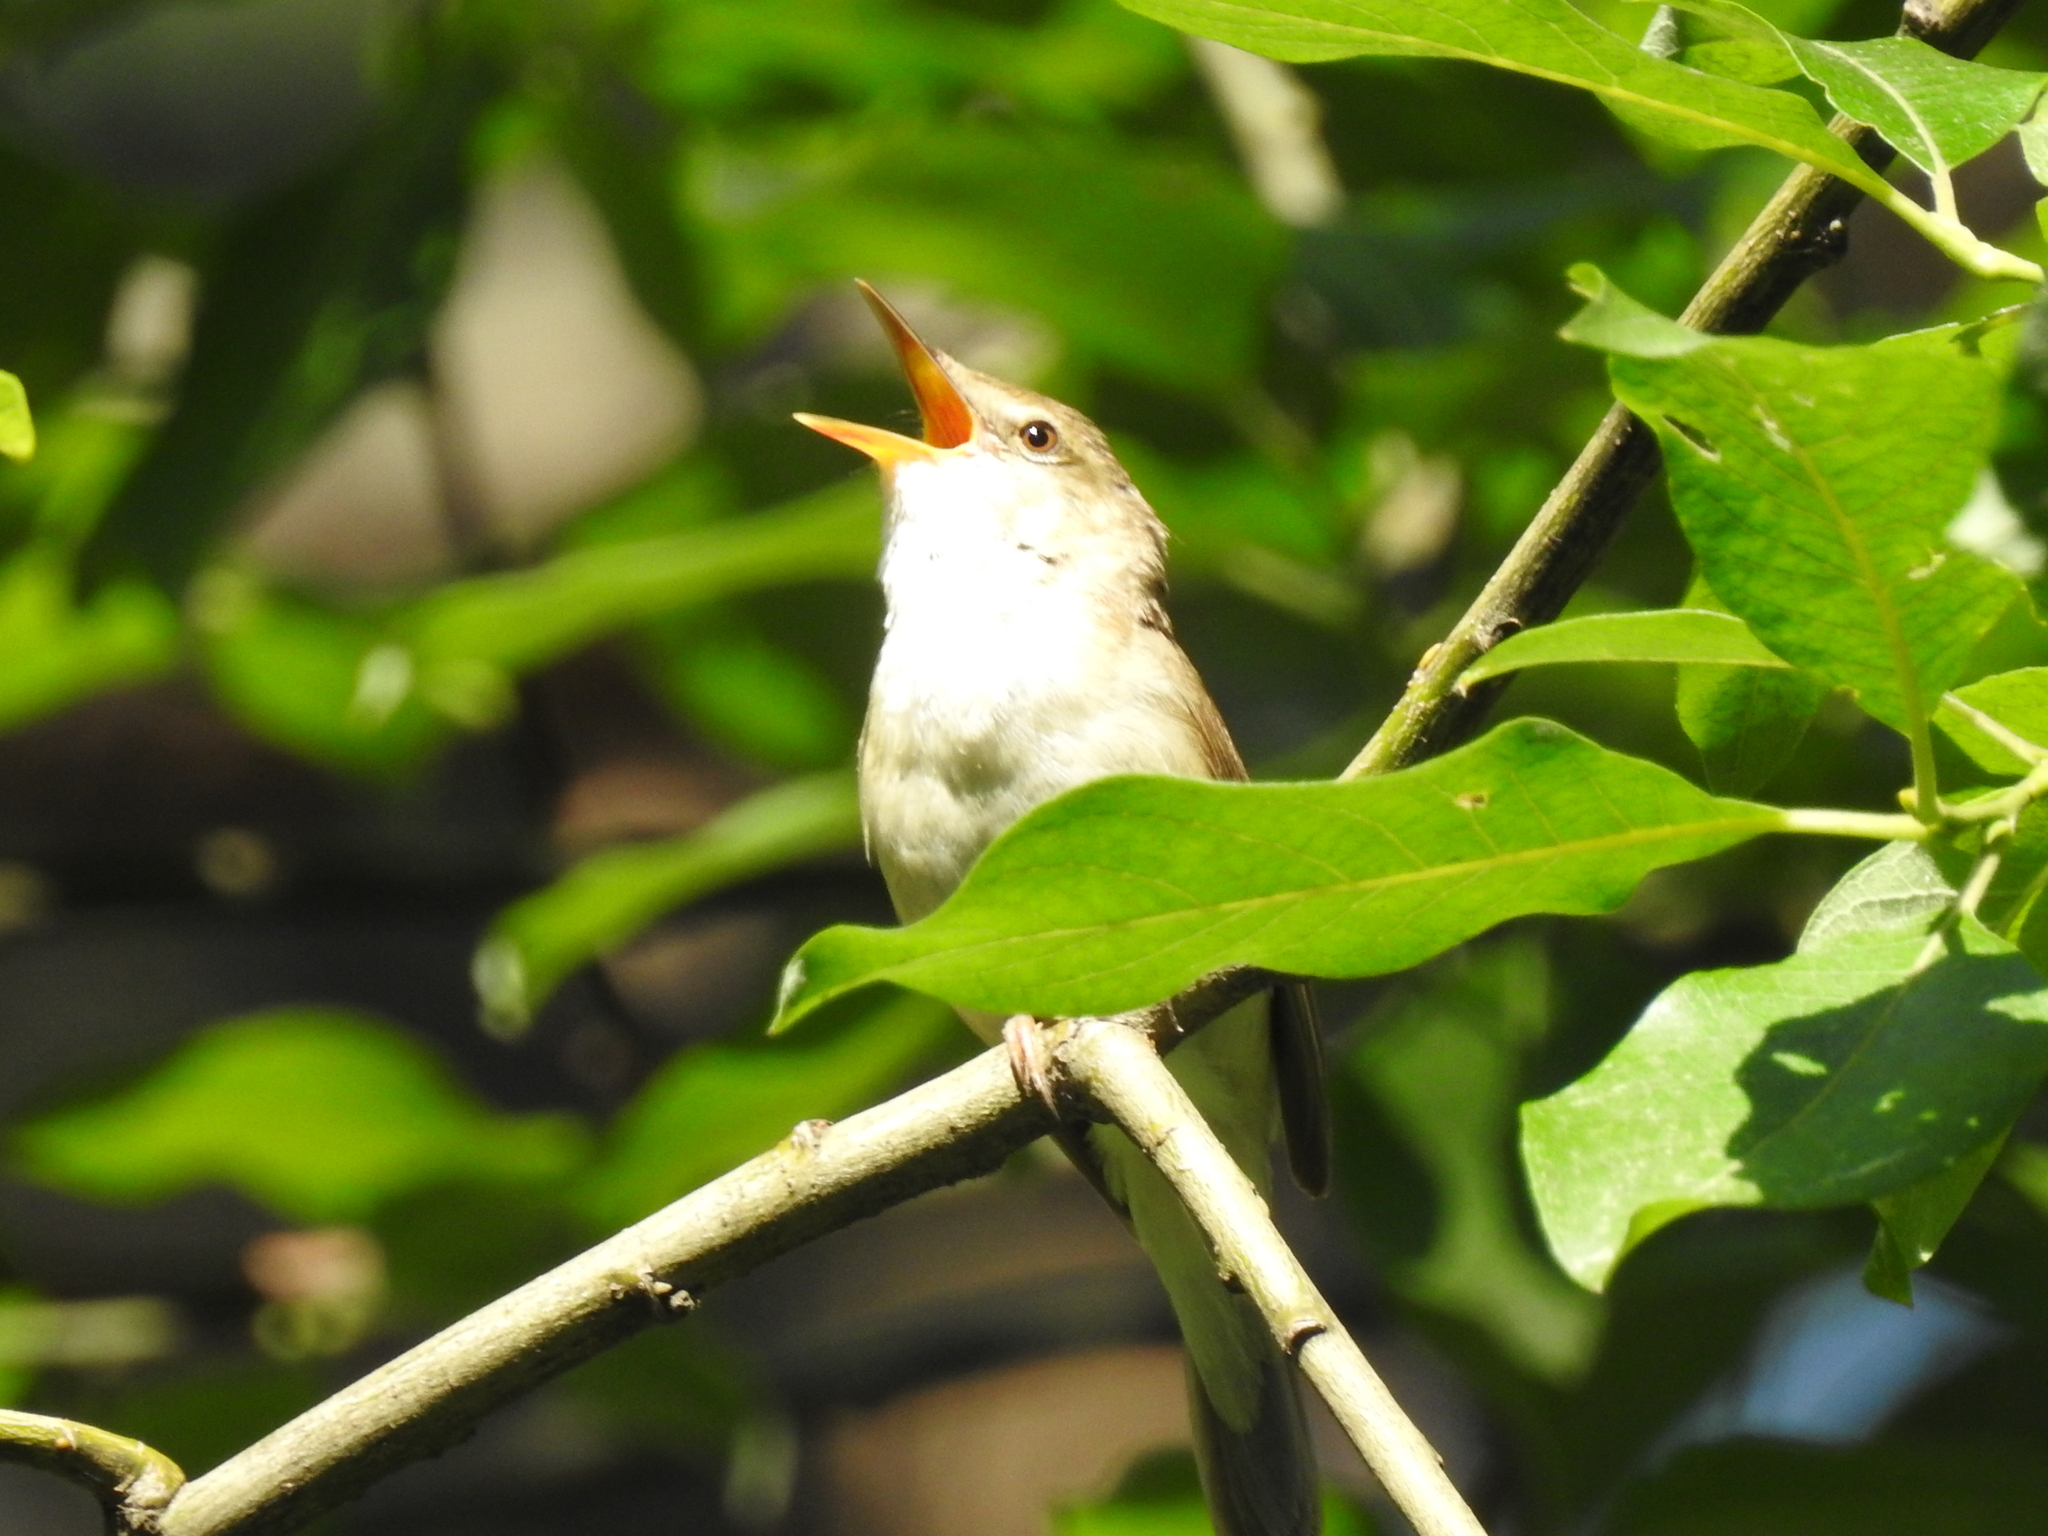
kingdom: Animalia
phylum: Chordata
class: Aves
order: Passeriformes
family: Acrocephalidae
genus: Acrocephalus
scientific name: Acrocephalus dumetorum
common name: Blyth's reed warbler
